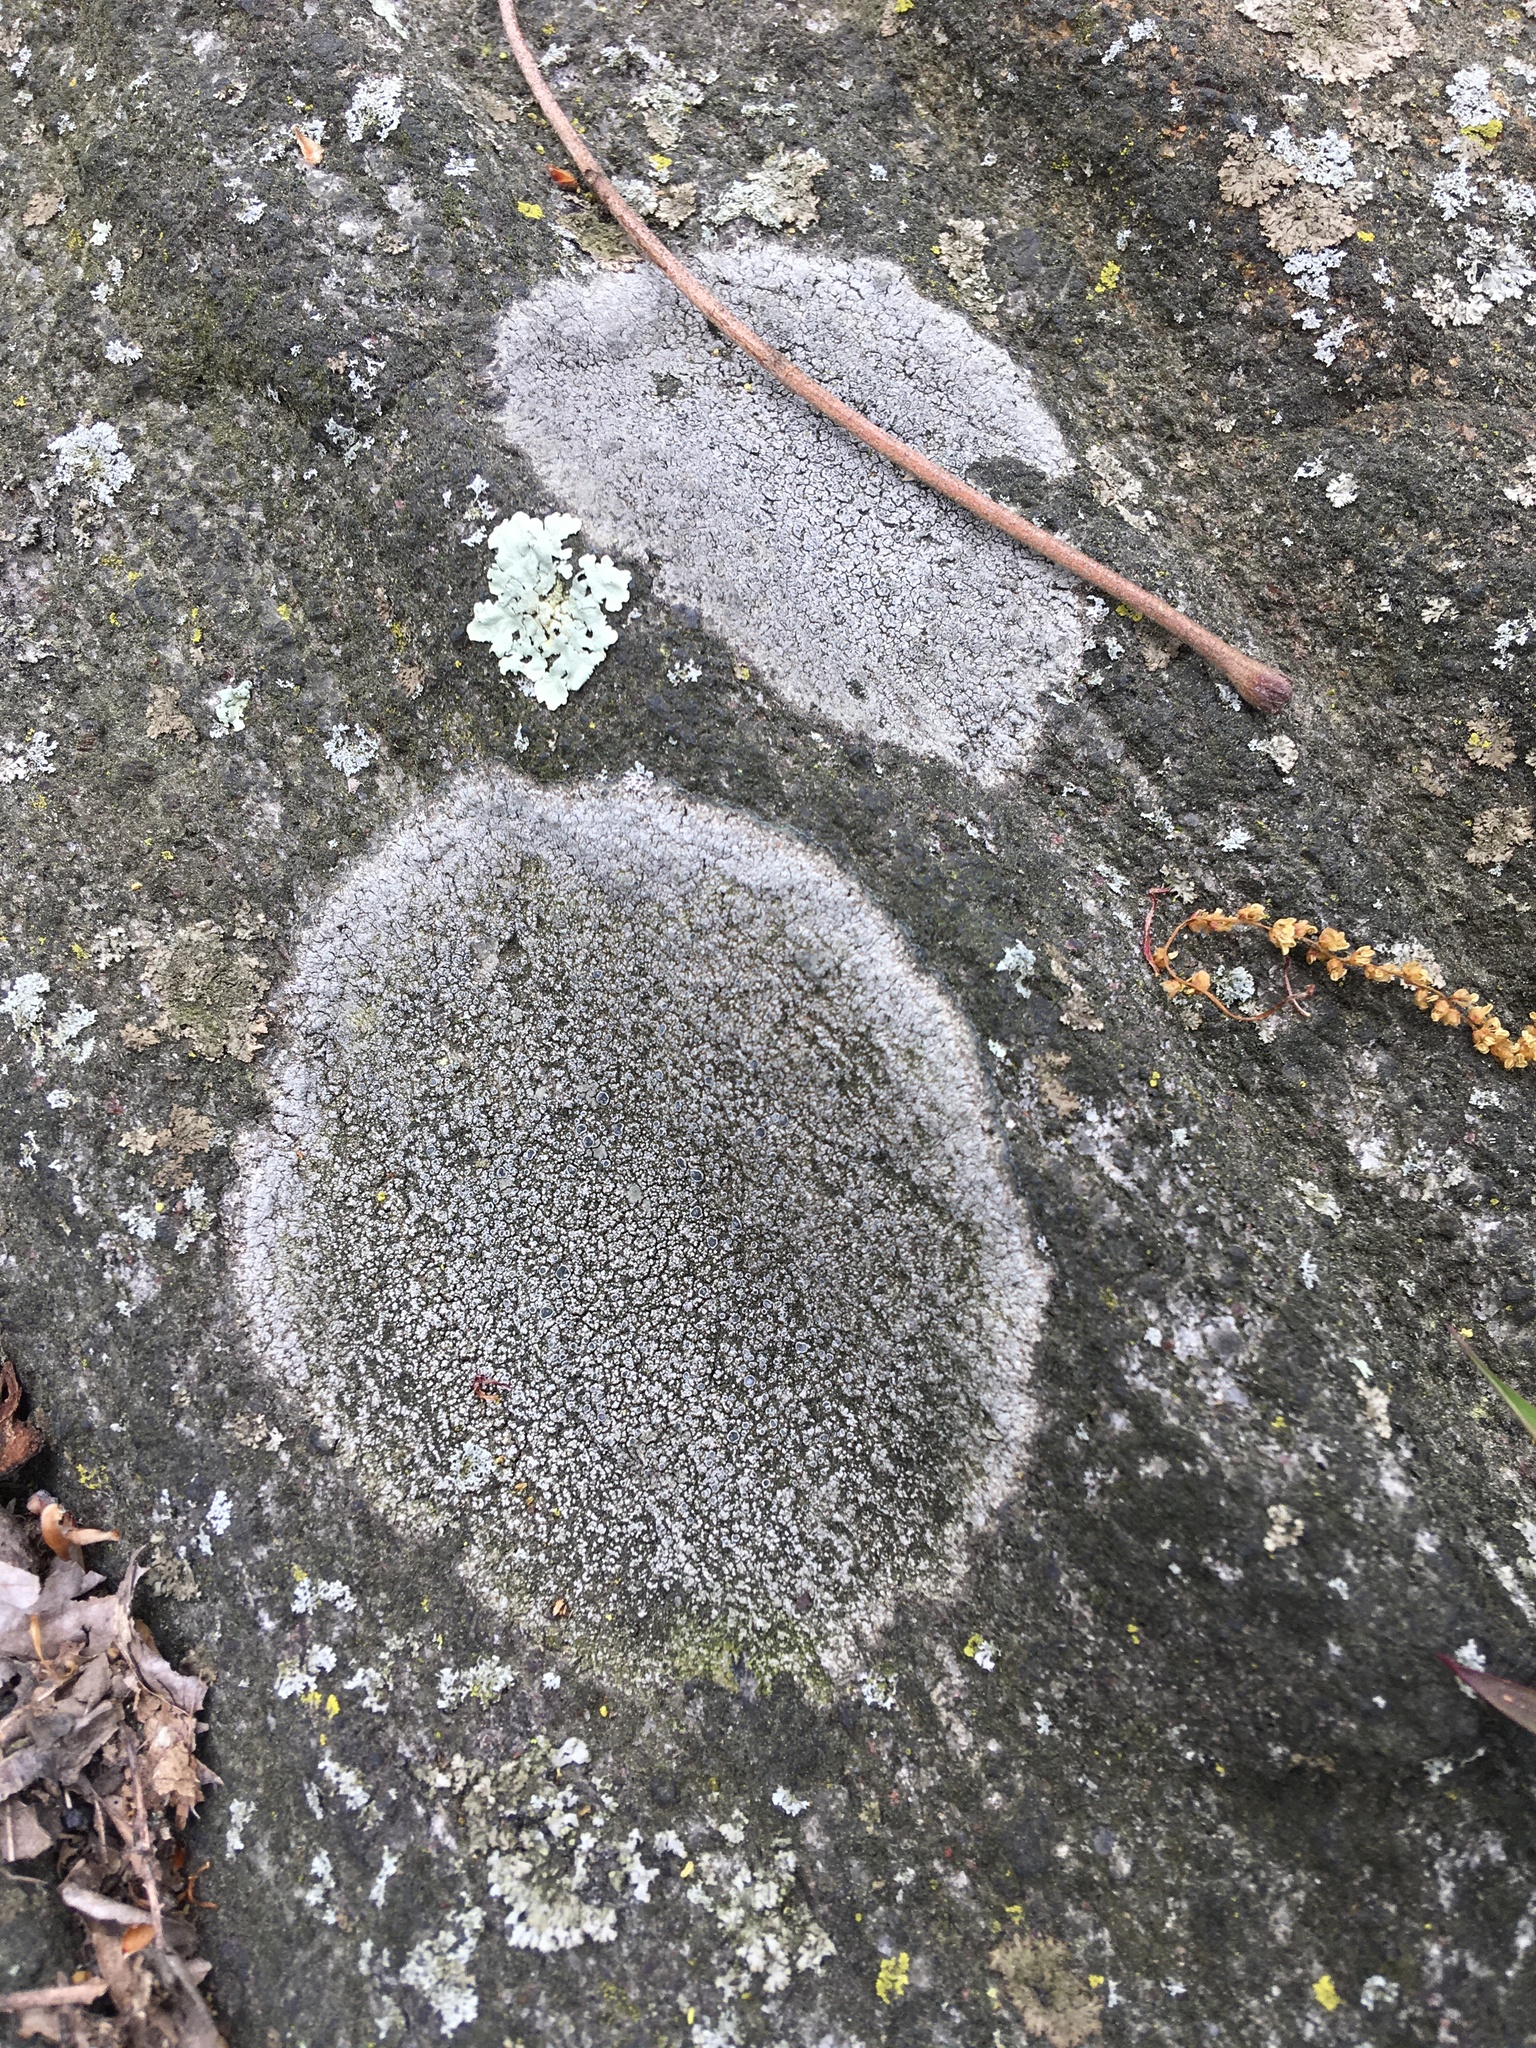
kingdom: Fungi
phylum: Ascomycota
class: Lecanoromycetes
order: Lecideales
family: Lecideaceae
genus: Porpidia
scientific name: Porpidia albocaerulescens
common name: Smokey-eyed boulder lichen
